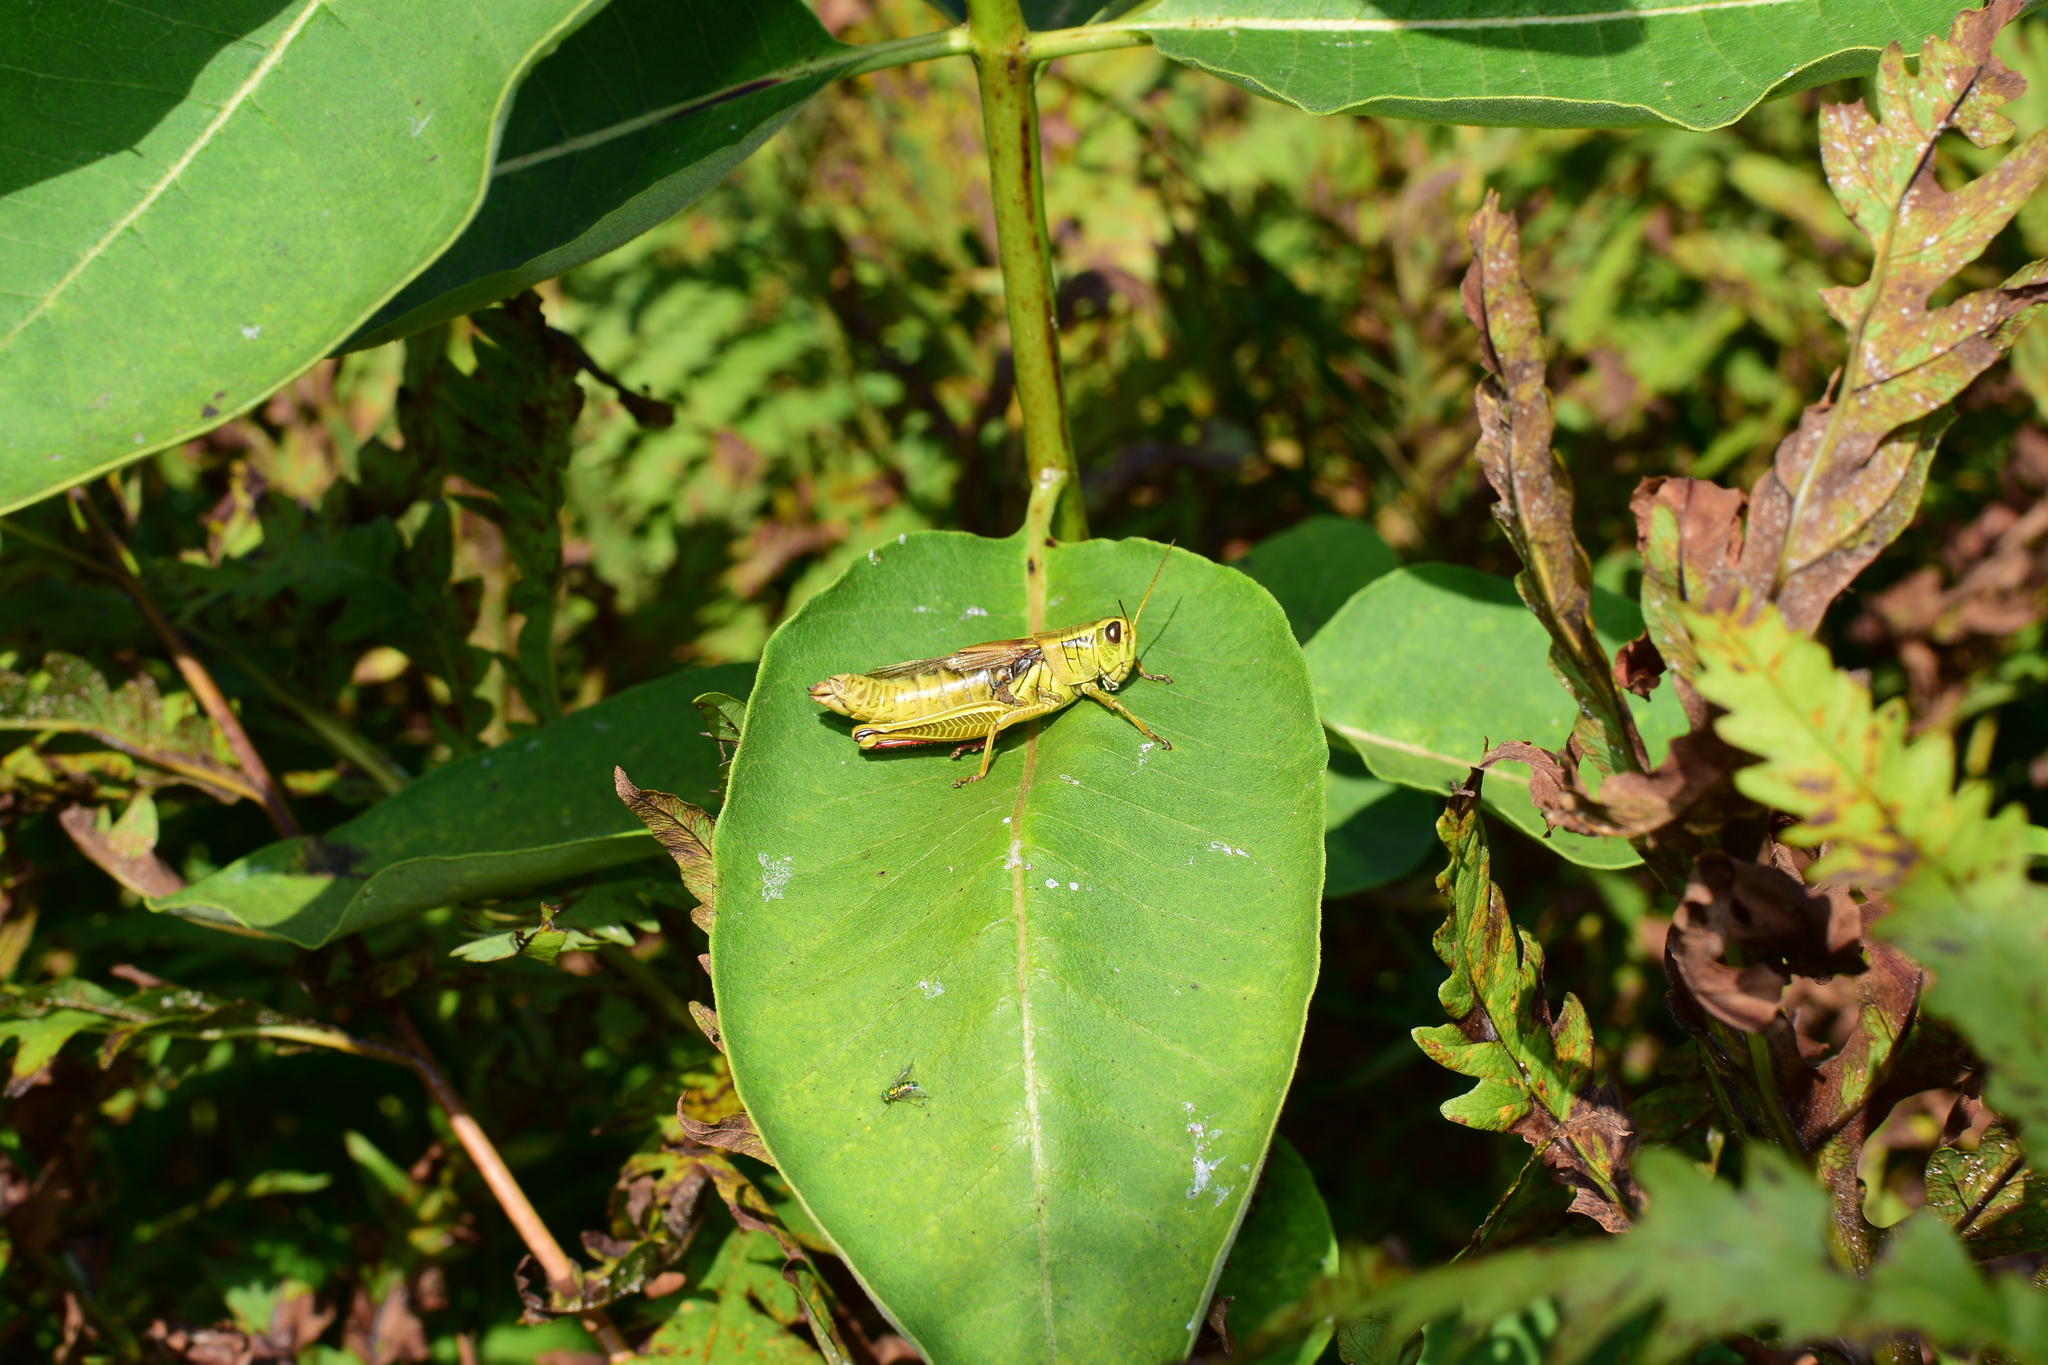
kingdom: Animalia
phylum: Arthropoda
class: Insecta
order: Orthoptera
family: Acrididae
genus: Melanoplus
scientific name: Melanoplus bivittatus
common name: Two-striped grasshopper
